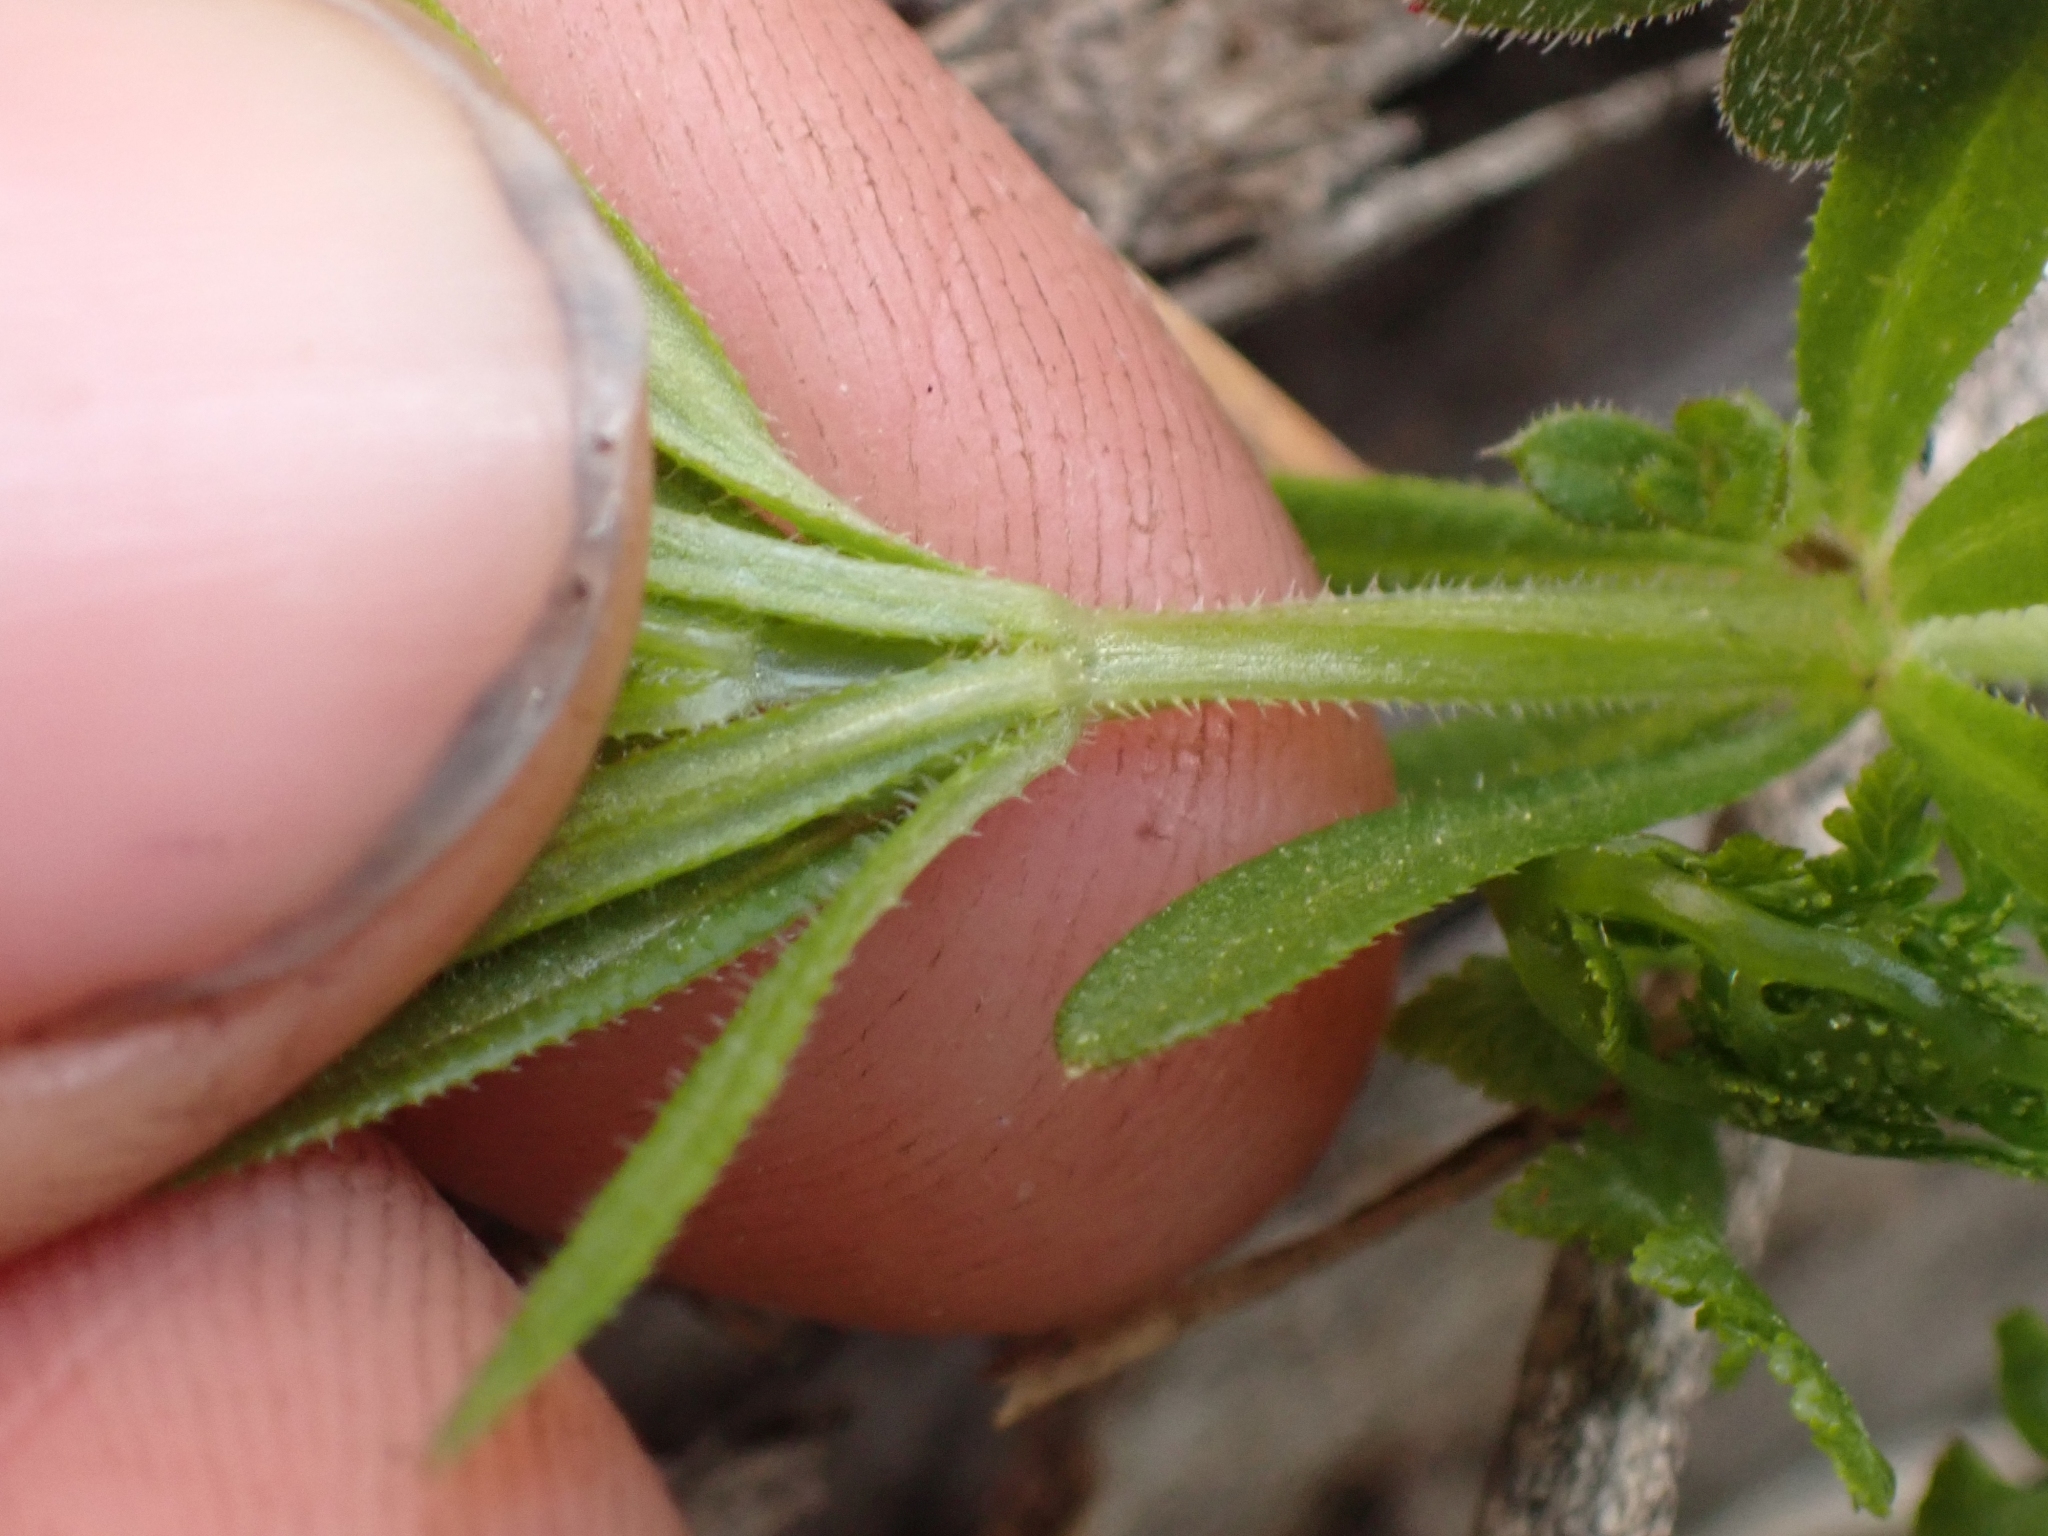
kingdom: Plantae
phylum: Tracheophyta
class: Magnoliopsida
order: Gentianales
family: Rubiaceae
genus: Galium
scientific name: Galium aparine
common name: Cleavers
